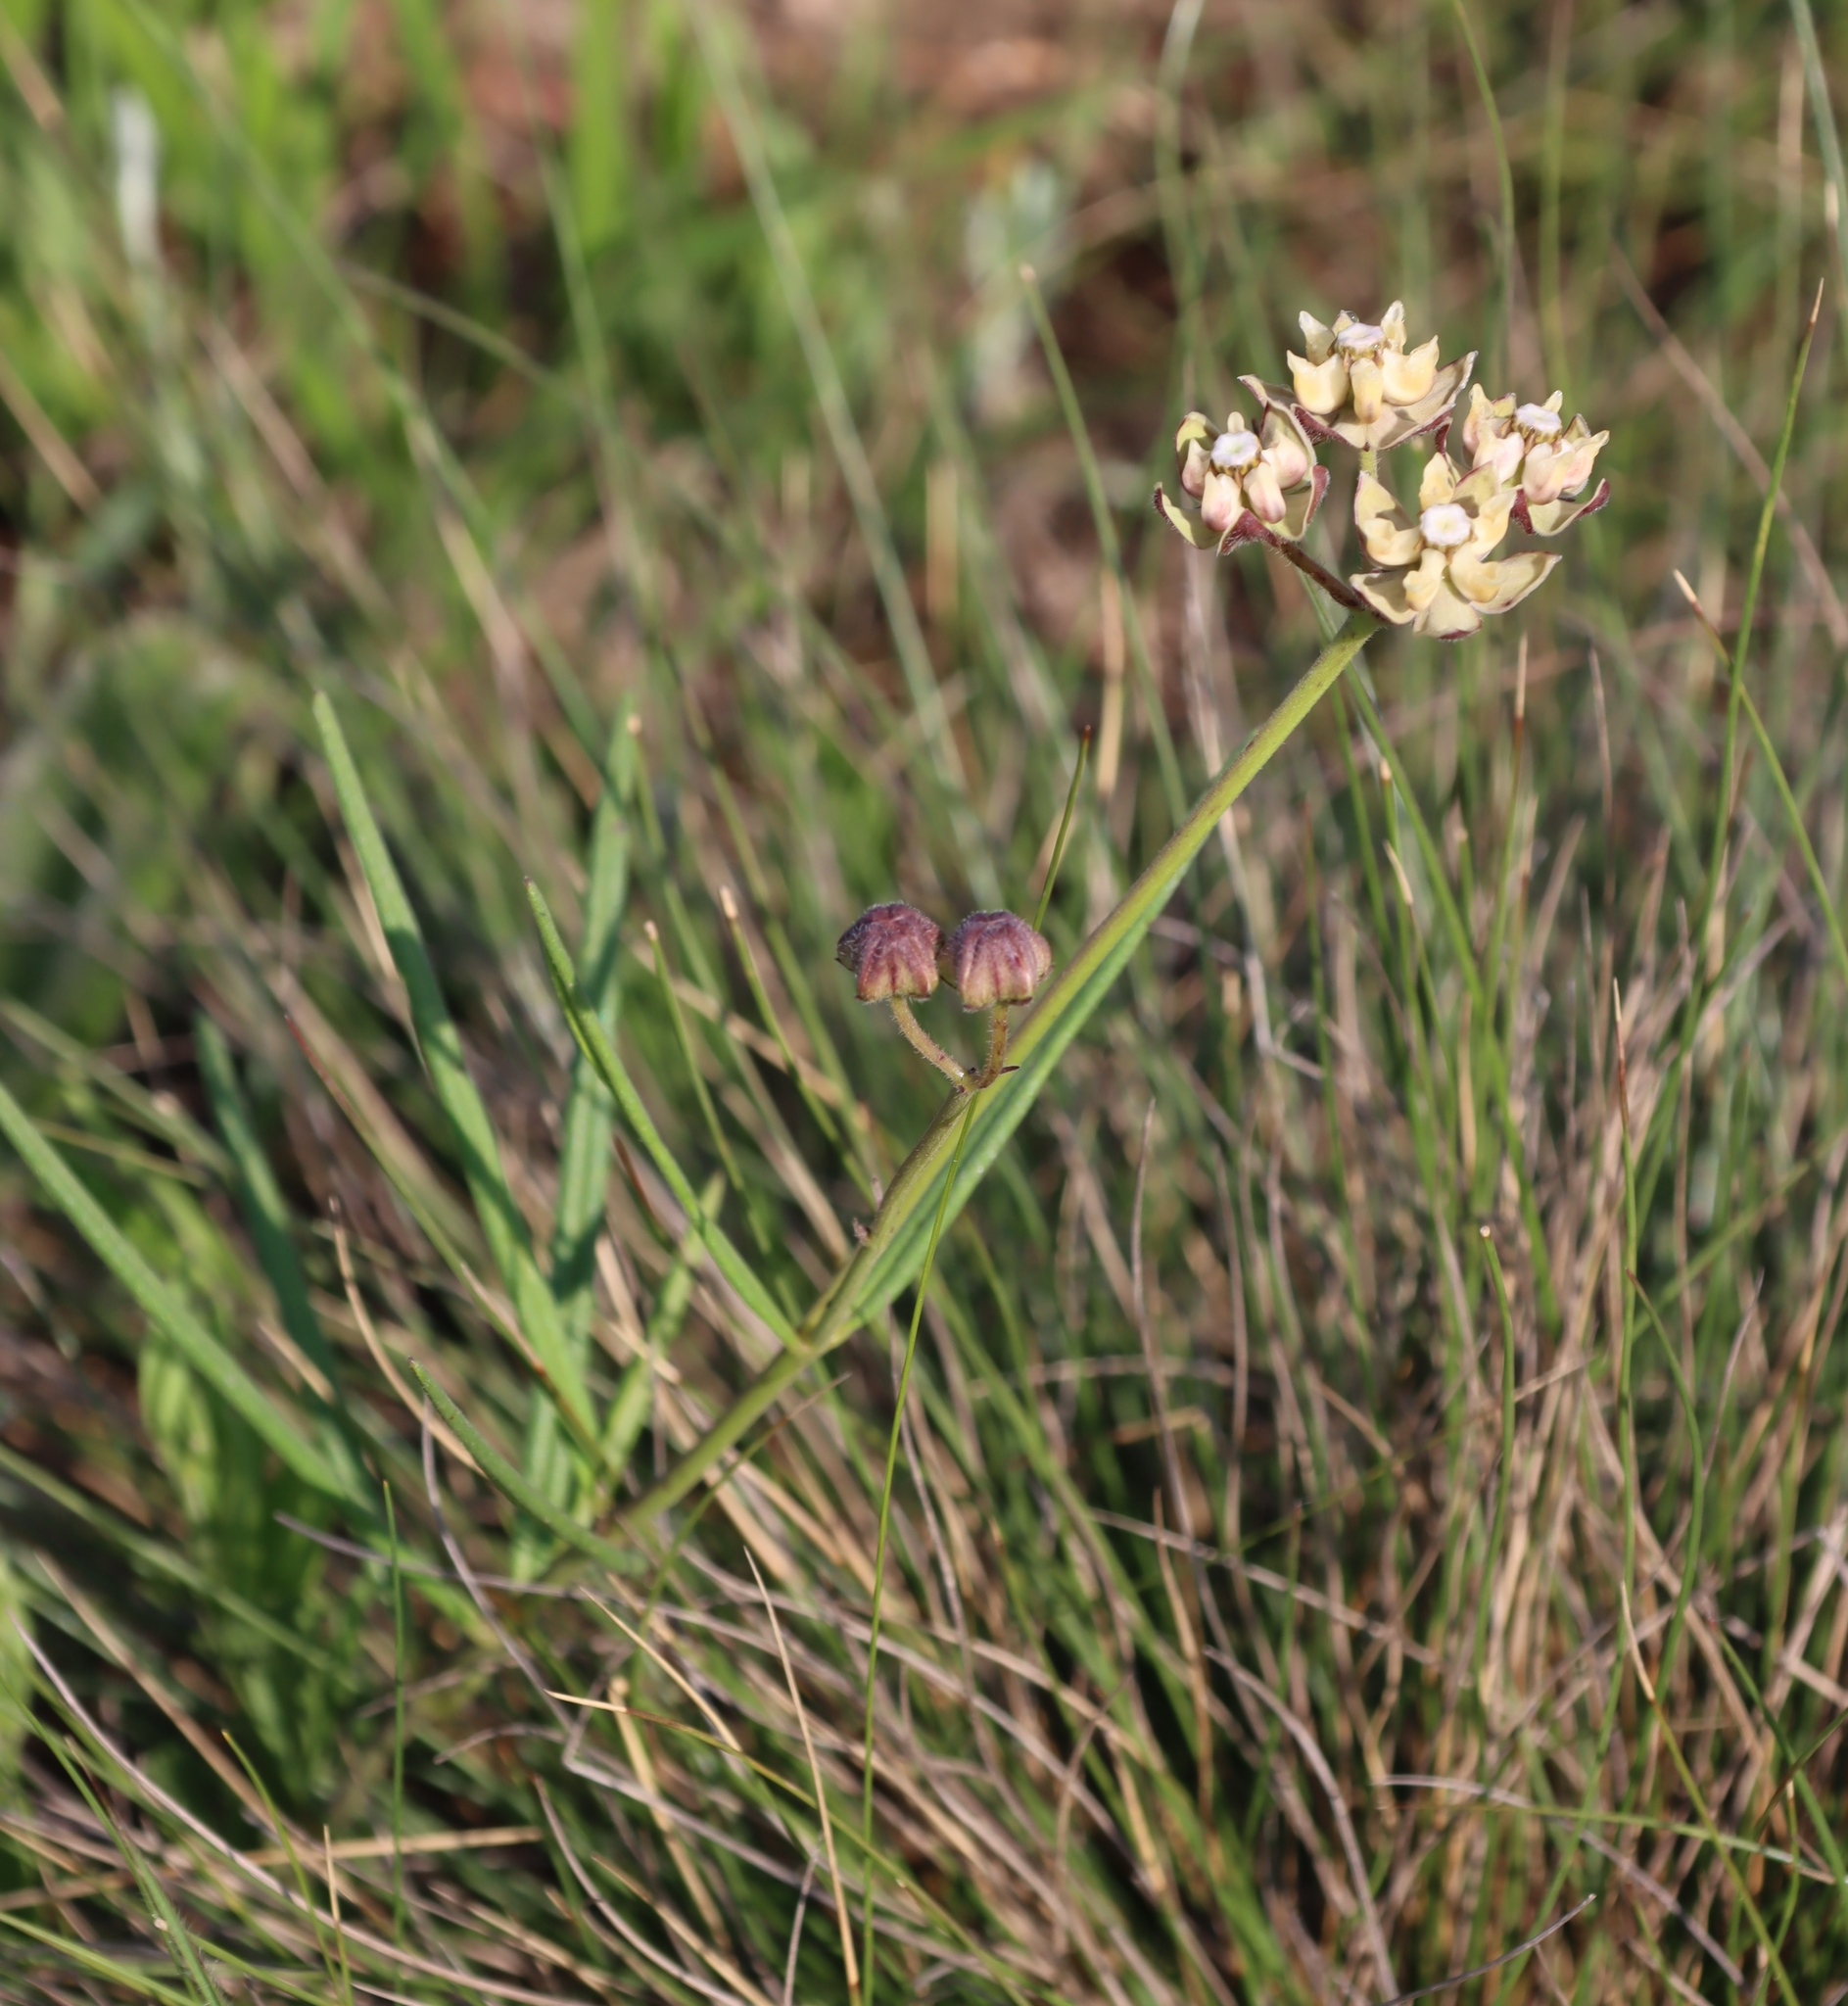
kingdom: Plantae
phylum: Tracheophyta
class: Magnoliopsida
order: Gentianales
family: Apocynaceae
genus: Asclepias
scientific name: Asclepias cucullata
